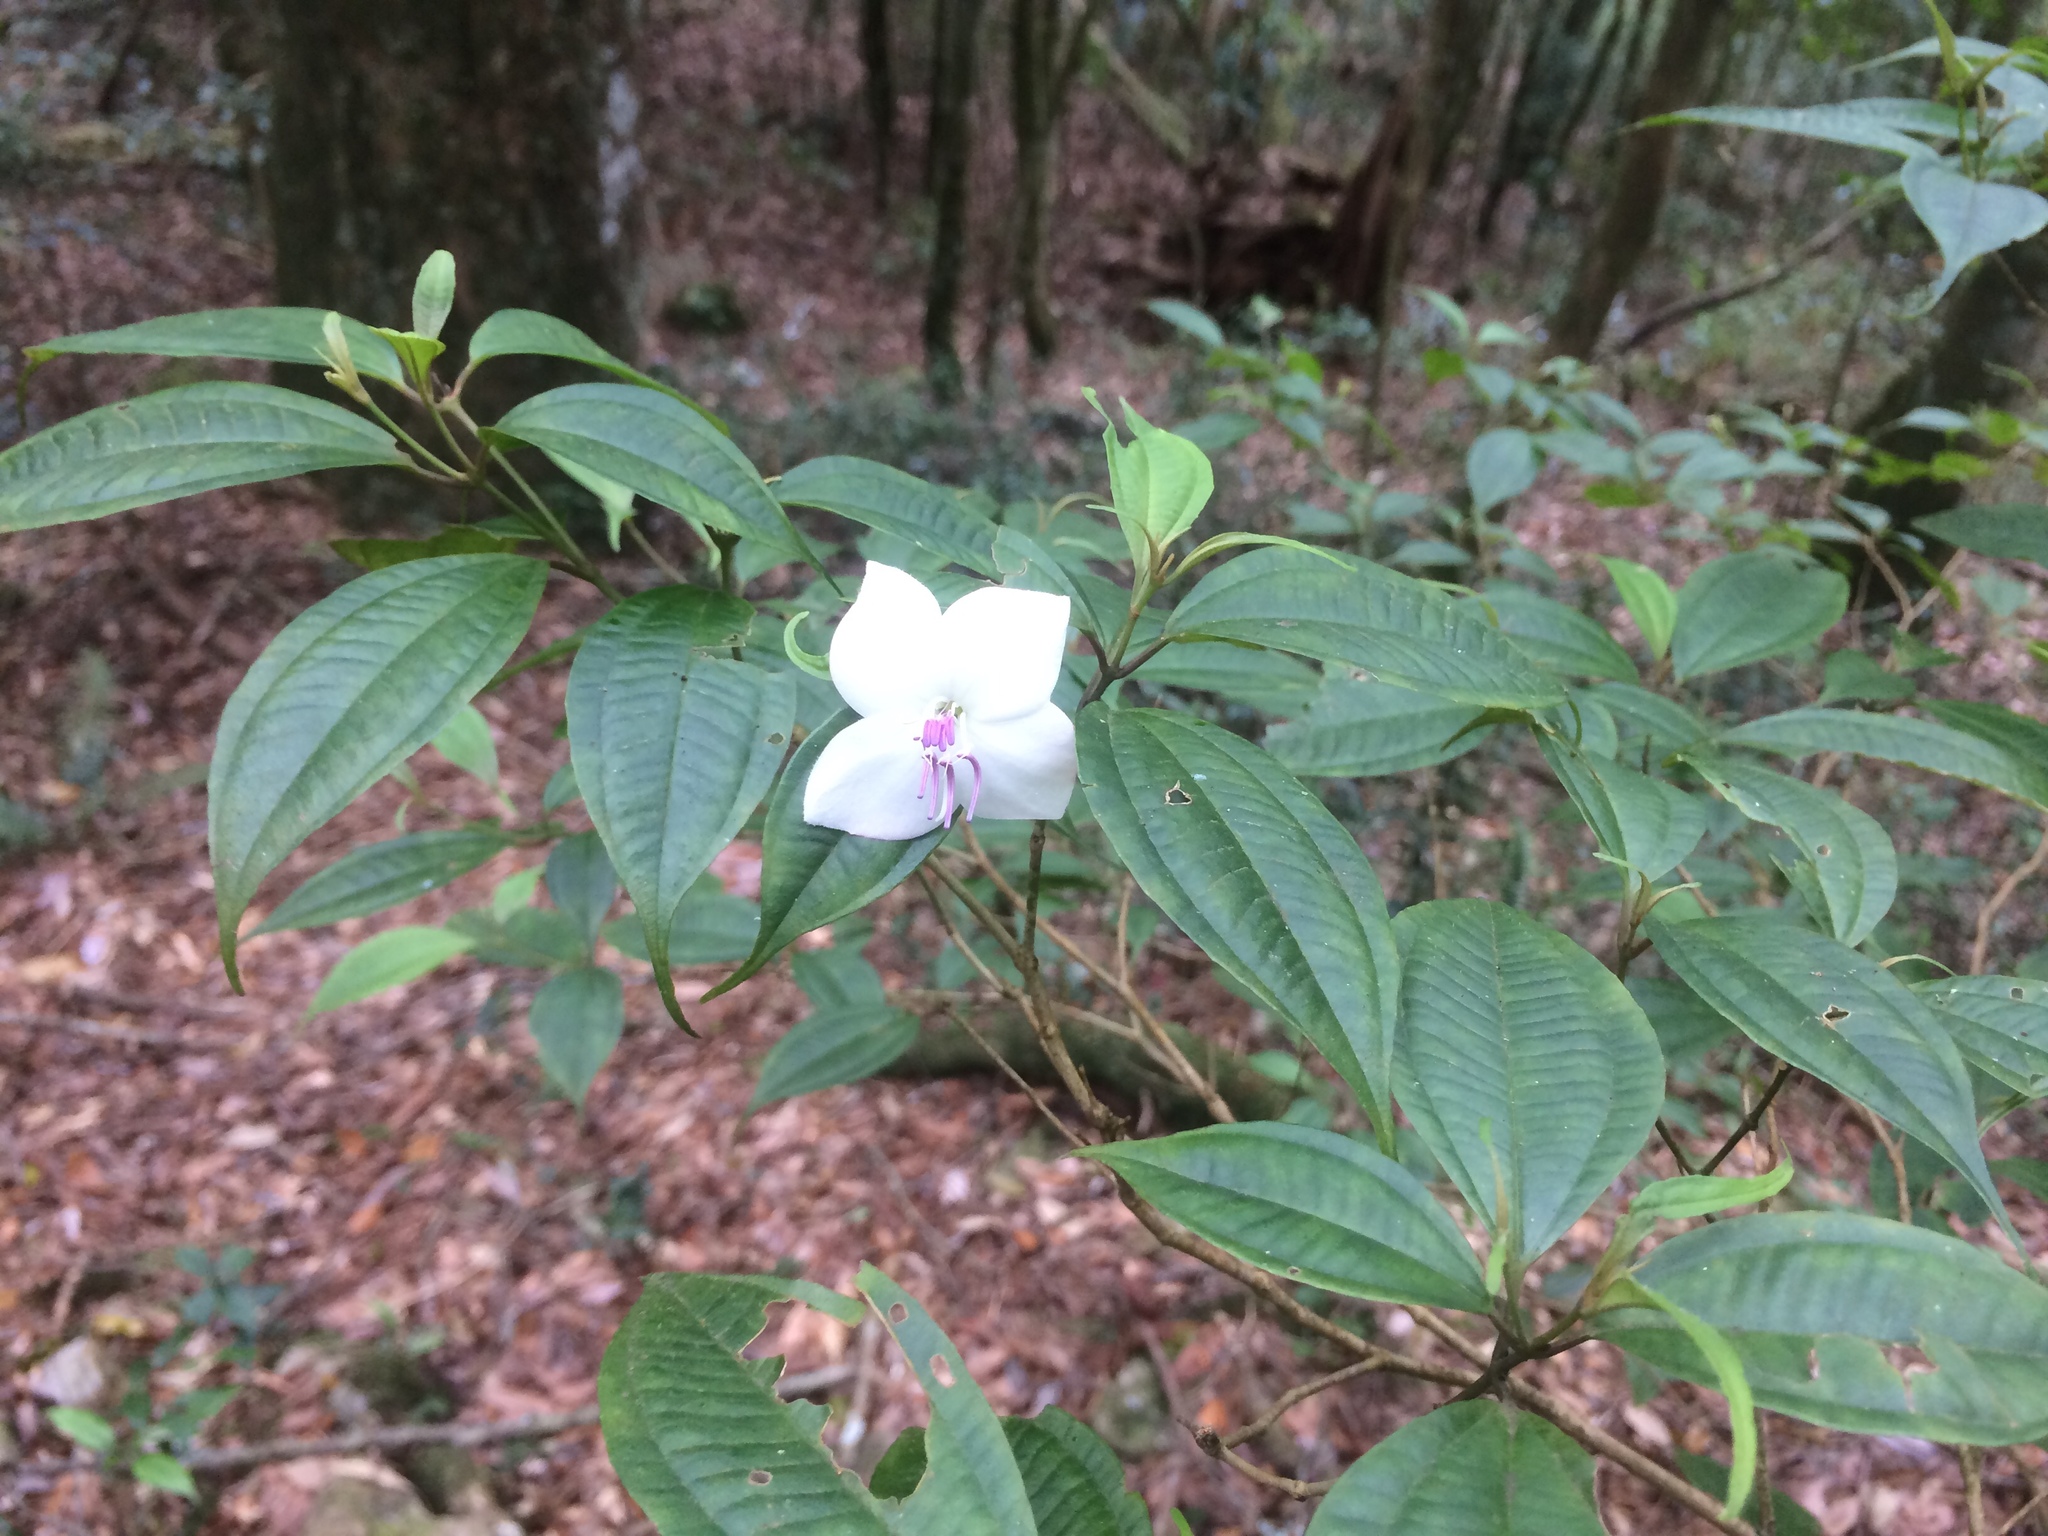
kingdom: Plantae
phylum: Tracheophyta
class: Magnoliopsida
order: Myrtales
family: Melastomataceae
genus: Barthea
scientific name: Barthea barthei
